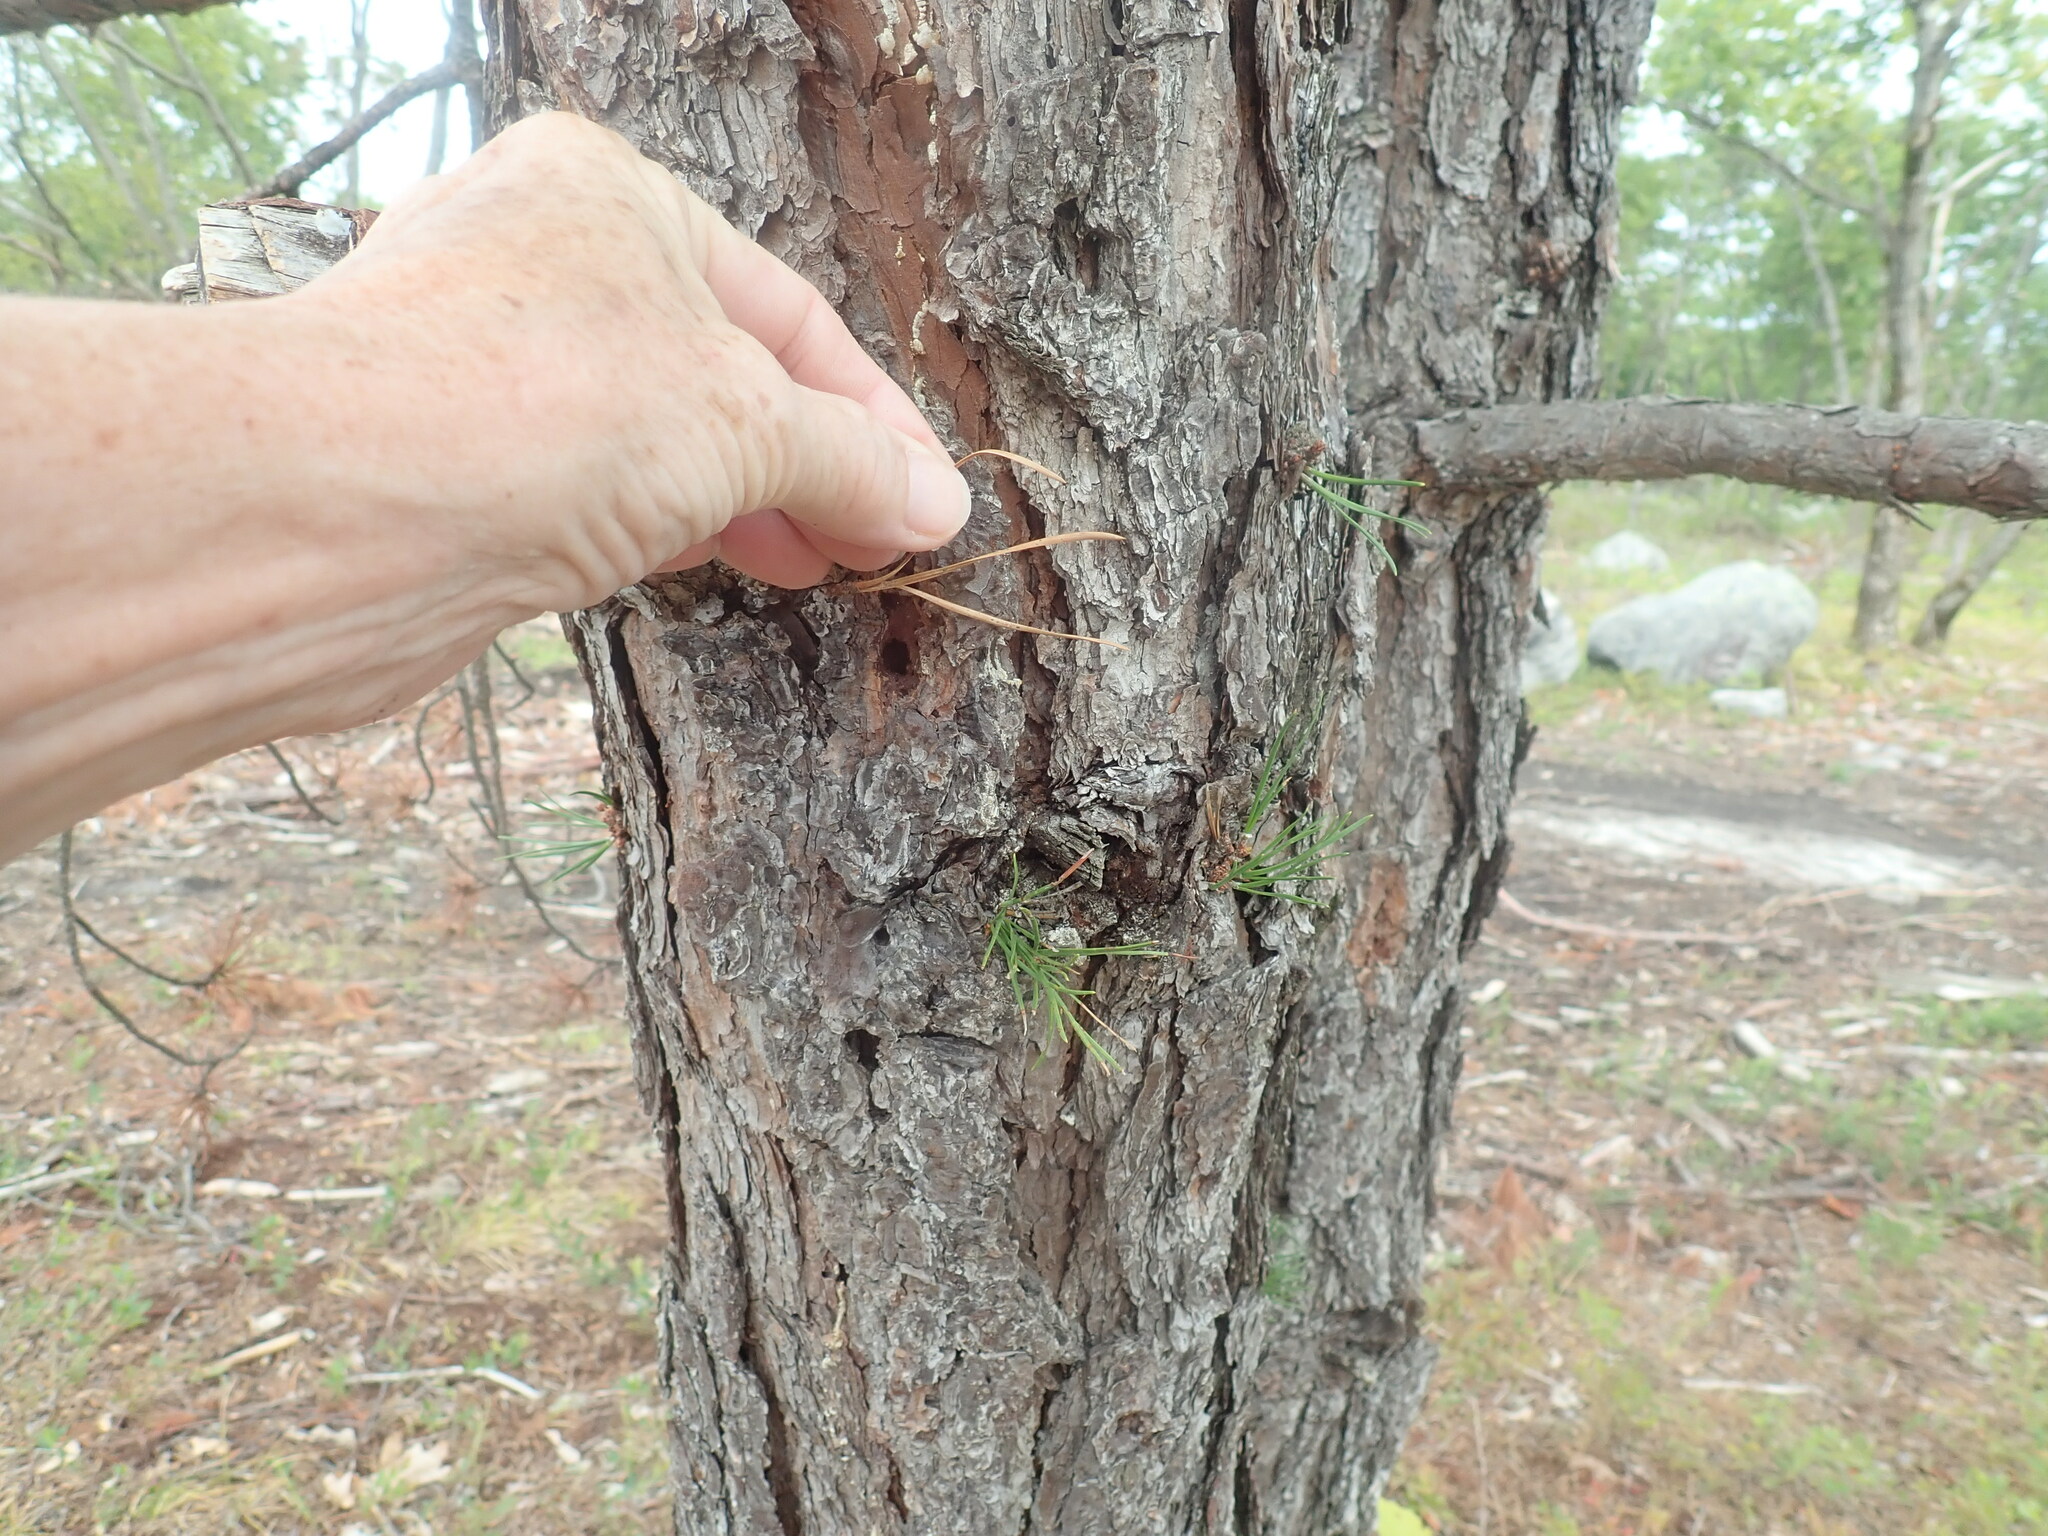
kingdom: Plantae
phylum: Tracheophyta
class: Pinopsida
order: Pinales
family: Pinaceae
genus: Pinus
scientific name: Pinus rigida
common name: Pitch pine
